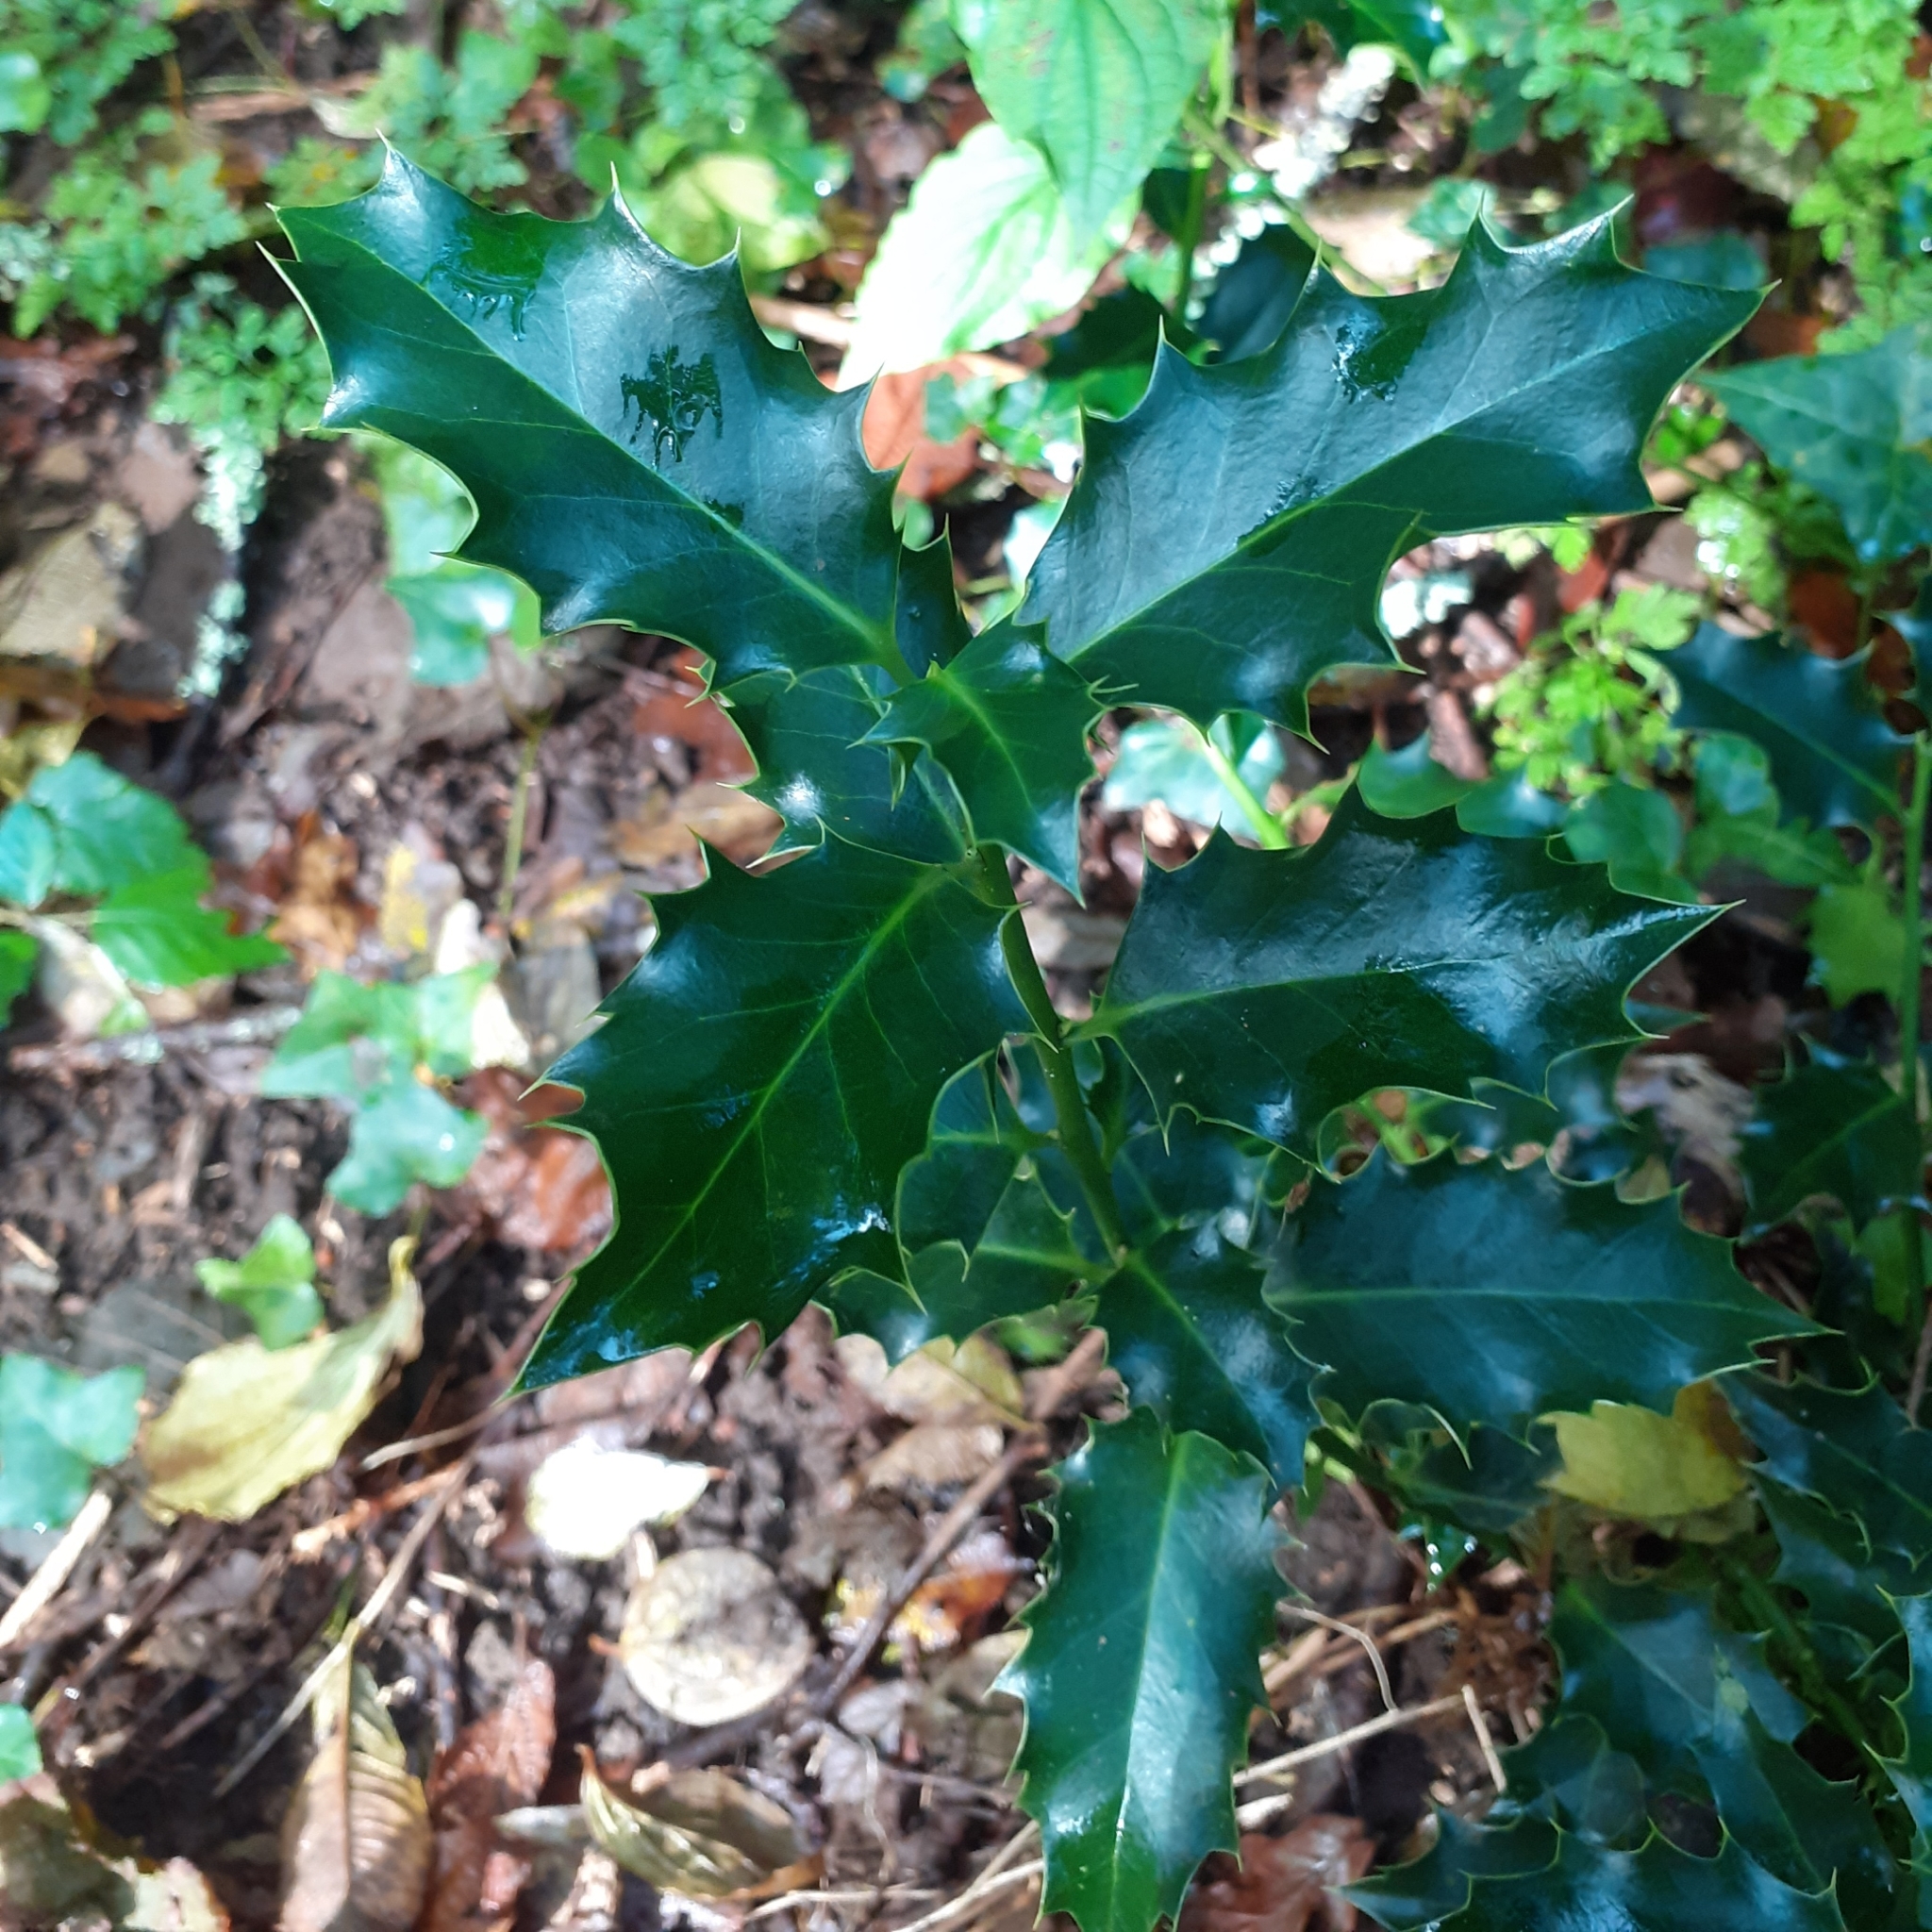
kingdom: Plantae
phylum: Tracheophyta
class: Magnoliopsida
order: Aquifoliales
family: Aquifoliaceae
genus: Ilex
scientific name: Ilex aquifolium
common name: English holly
